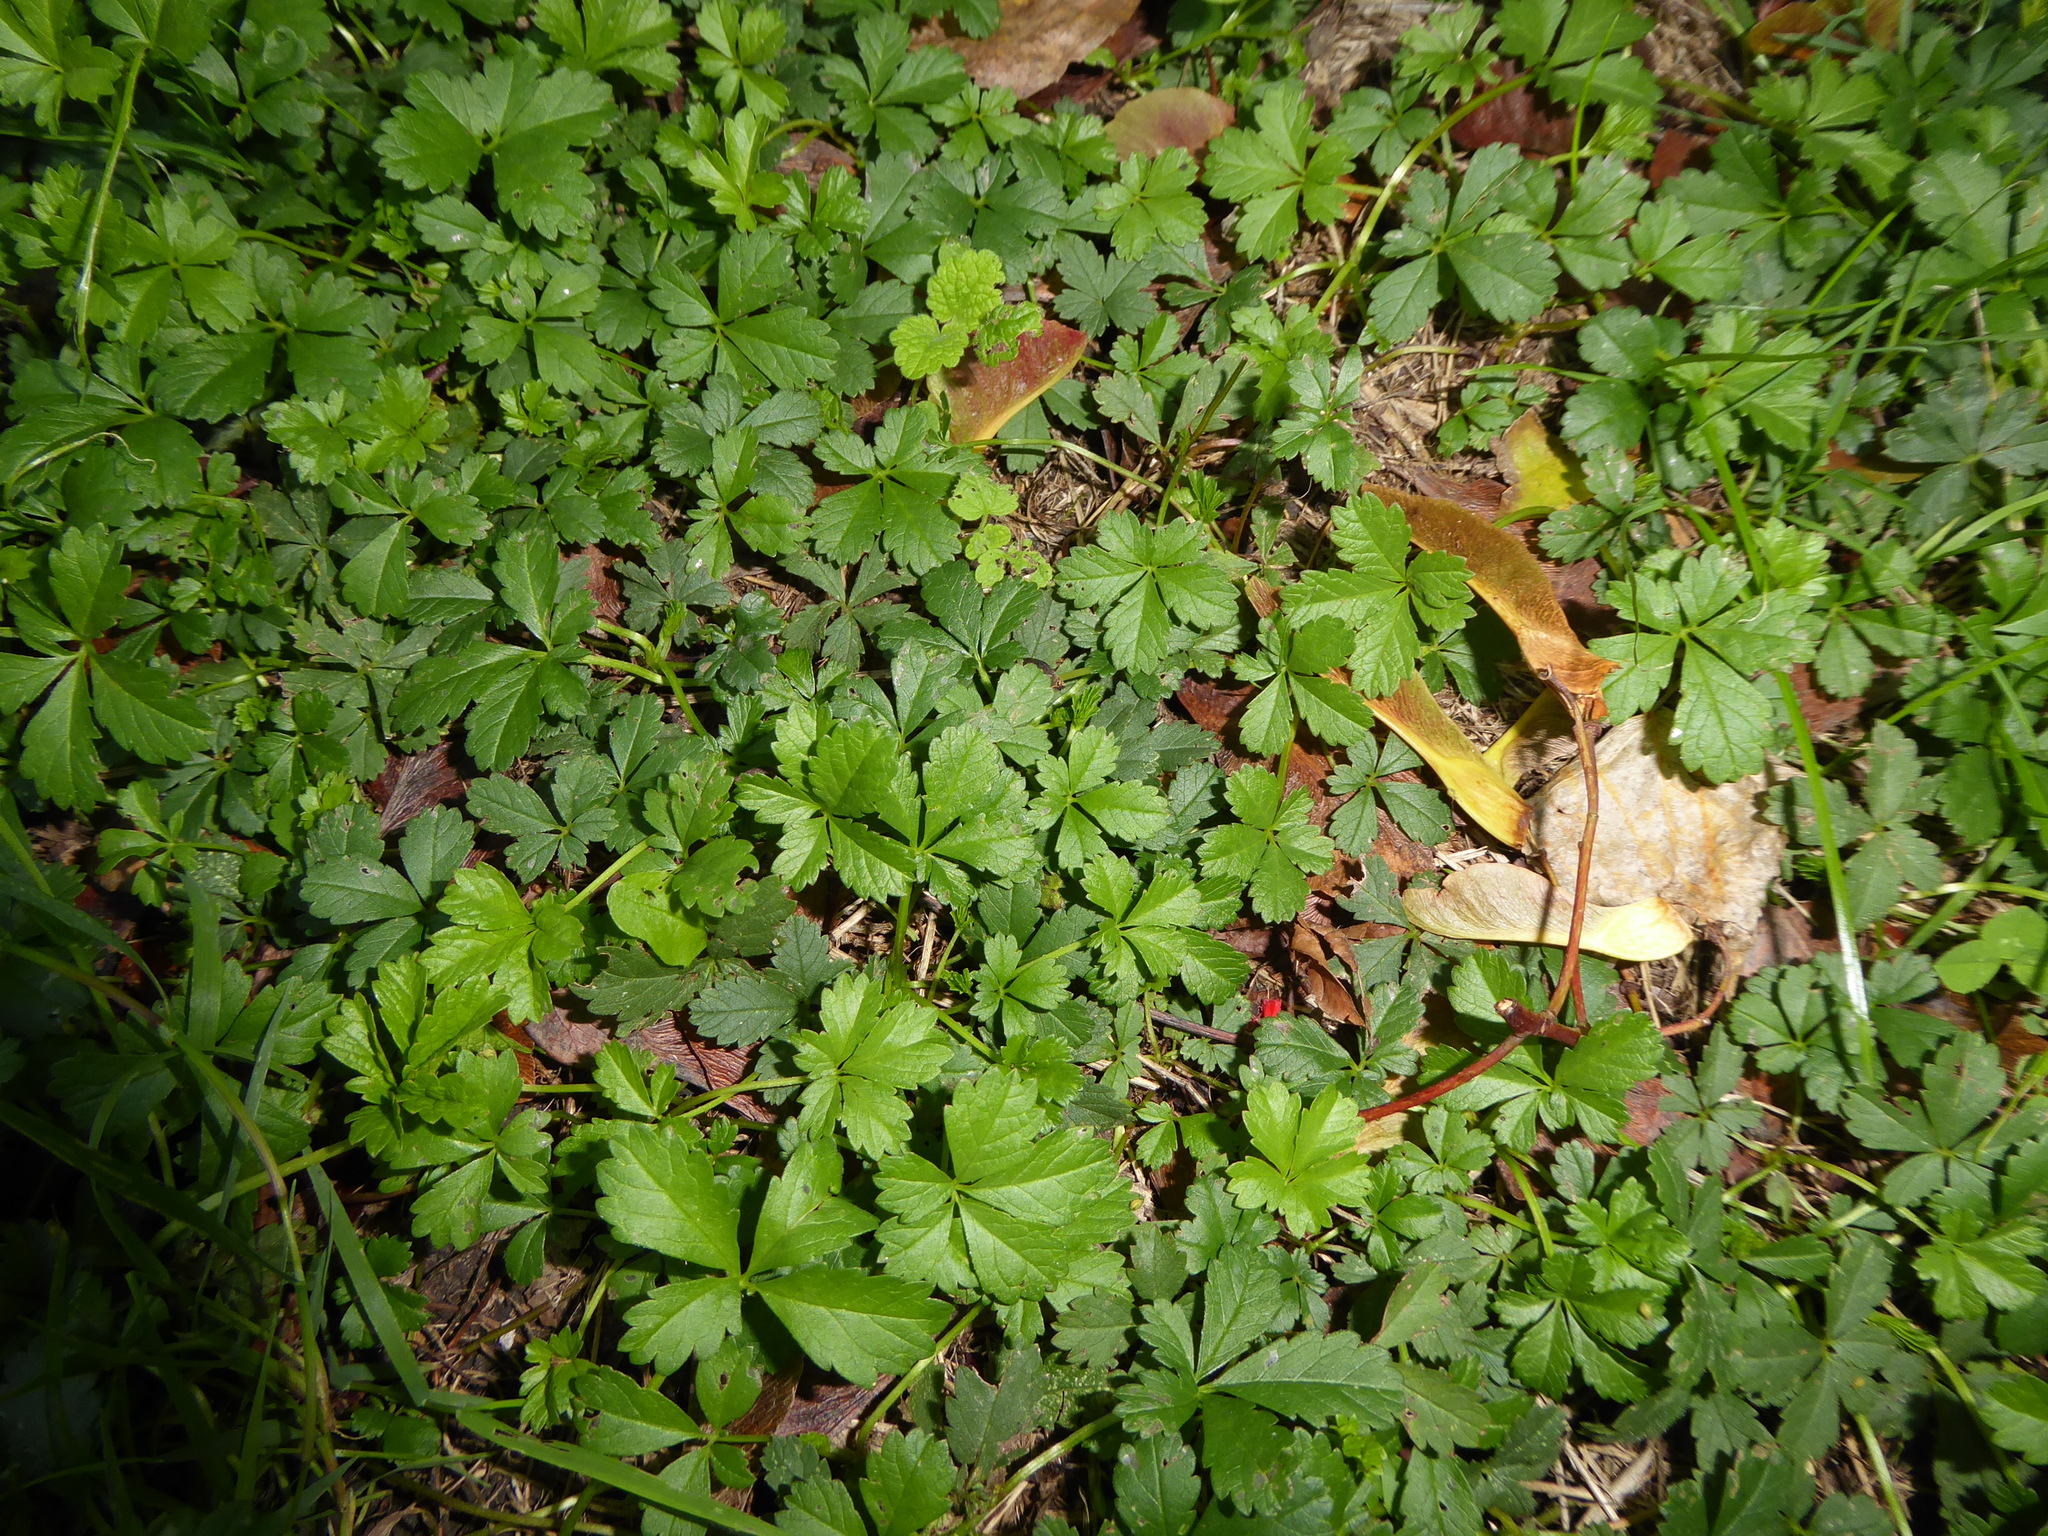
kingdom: Plantae
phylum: Tracheophyta
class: Magnoliopsida
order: Rosales
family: Rosaceae
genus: Potentilla
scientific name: Potentilla reptans
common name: Creeping cinquefoil
